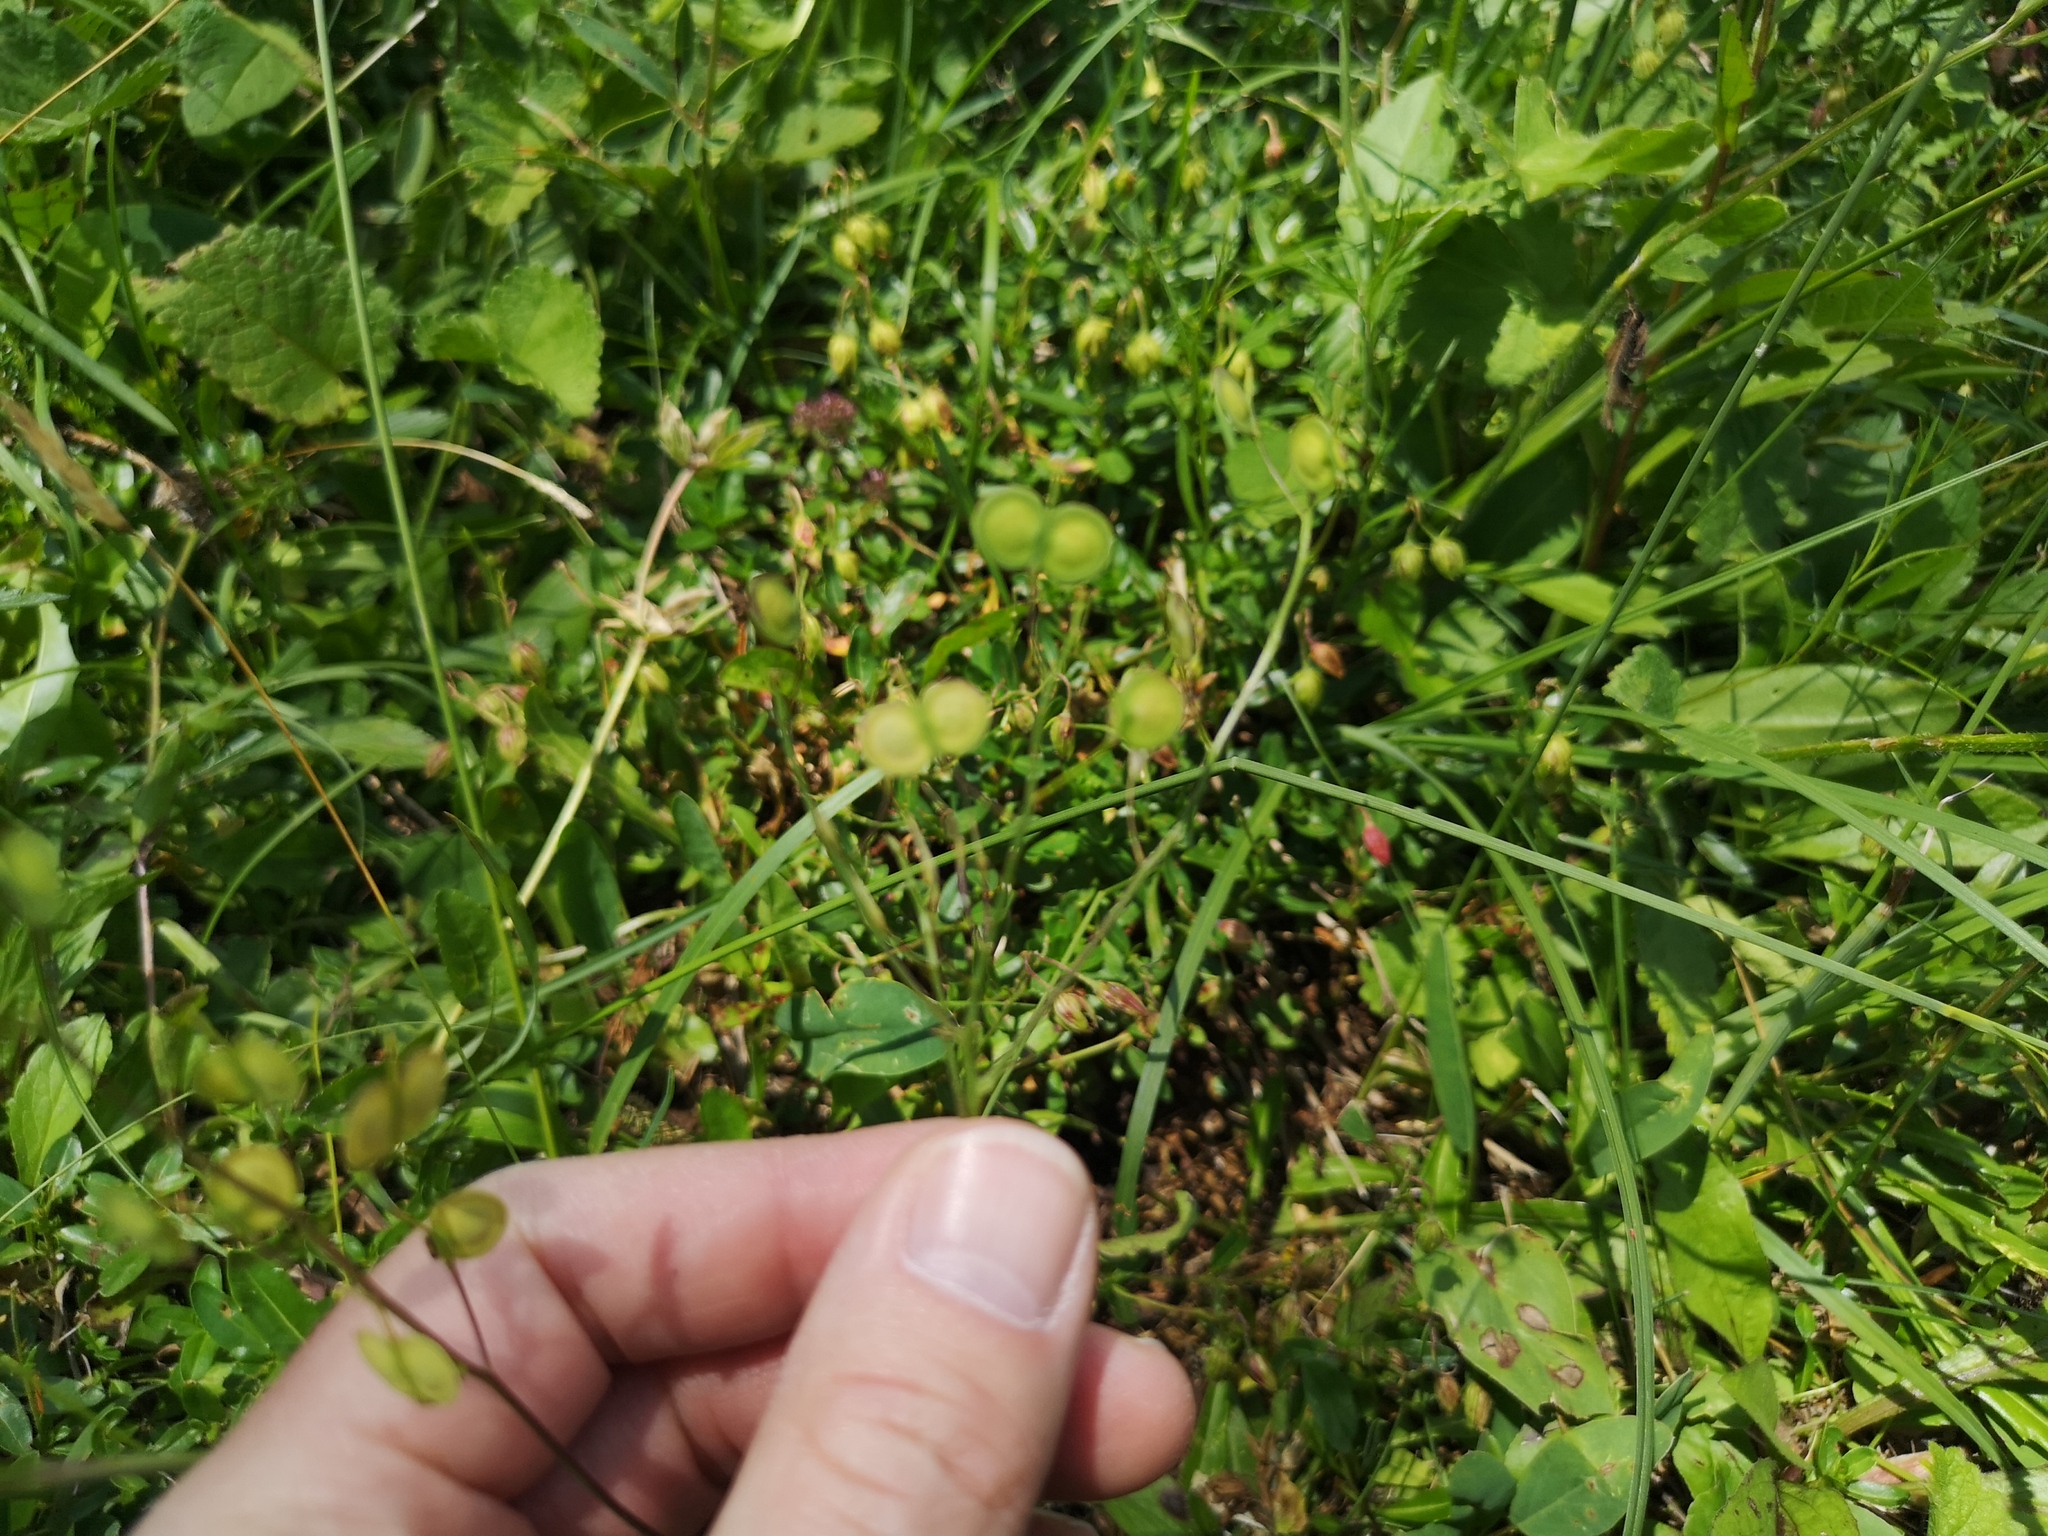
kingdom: Plantae
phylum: Tracheophyta
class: Magnoliopsida
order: Brassicales
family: Brassicaceae
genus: Biscutella
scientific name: Biscutella laevigata
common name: Buckler mustard
